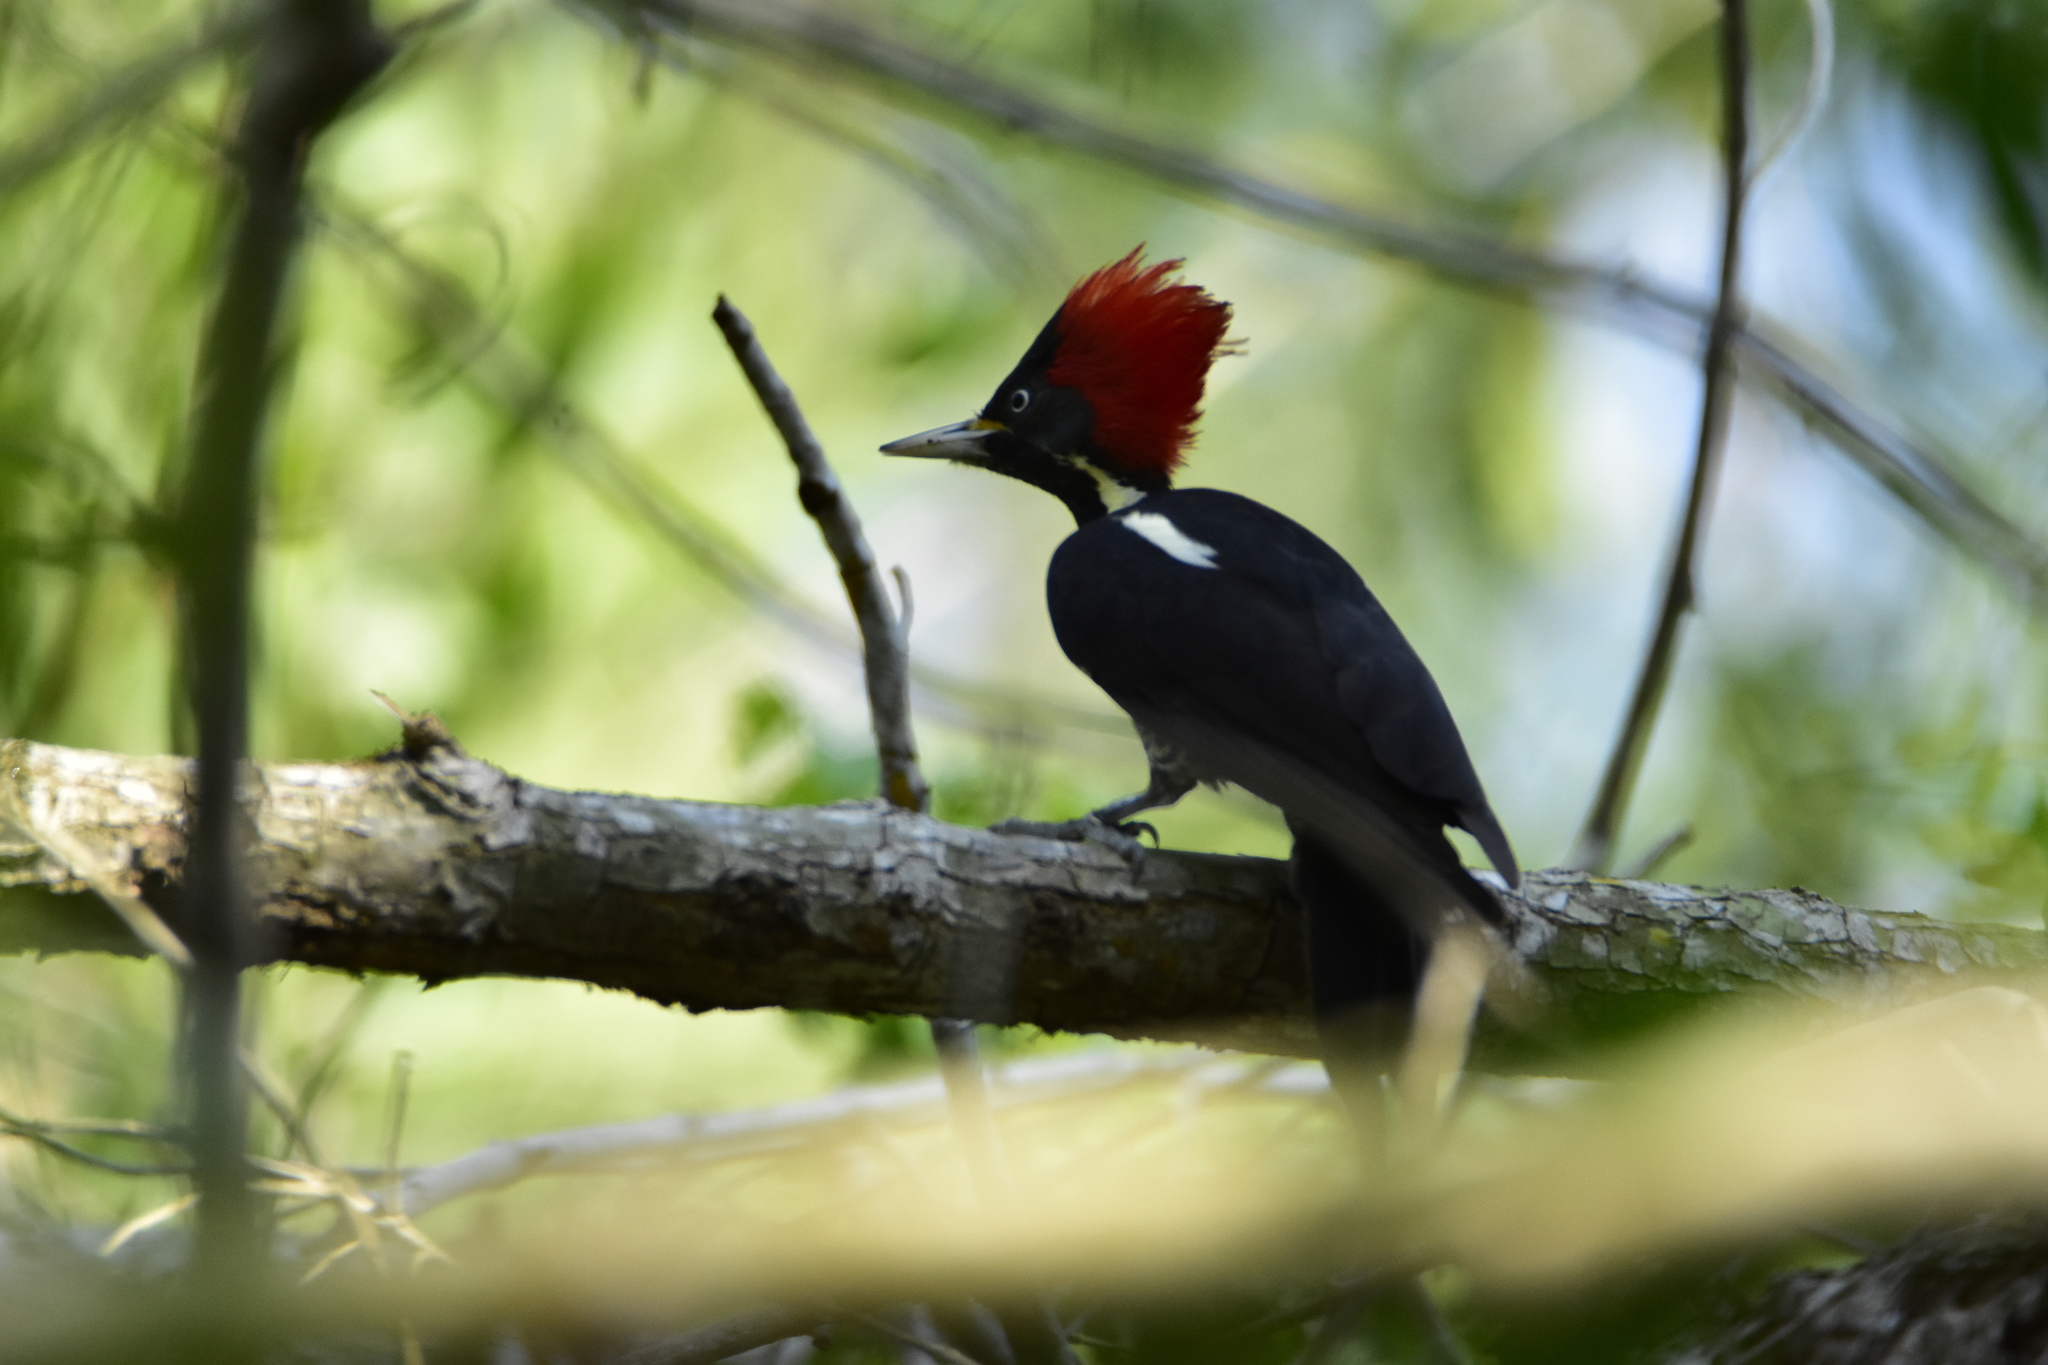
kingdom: Animalia
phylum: Chordata
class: Aves
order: Piciformes
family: Picidae
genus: Dryocopus
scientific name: Dryocopus lineatus
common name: Lineated woodpecker
